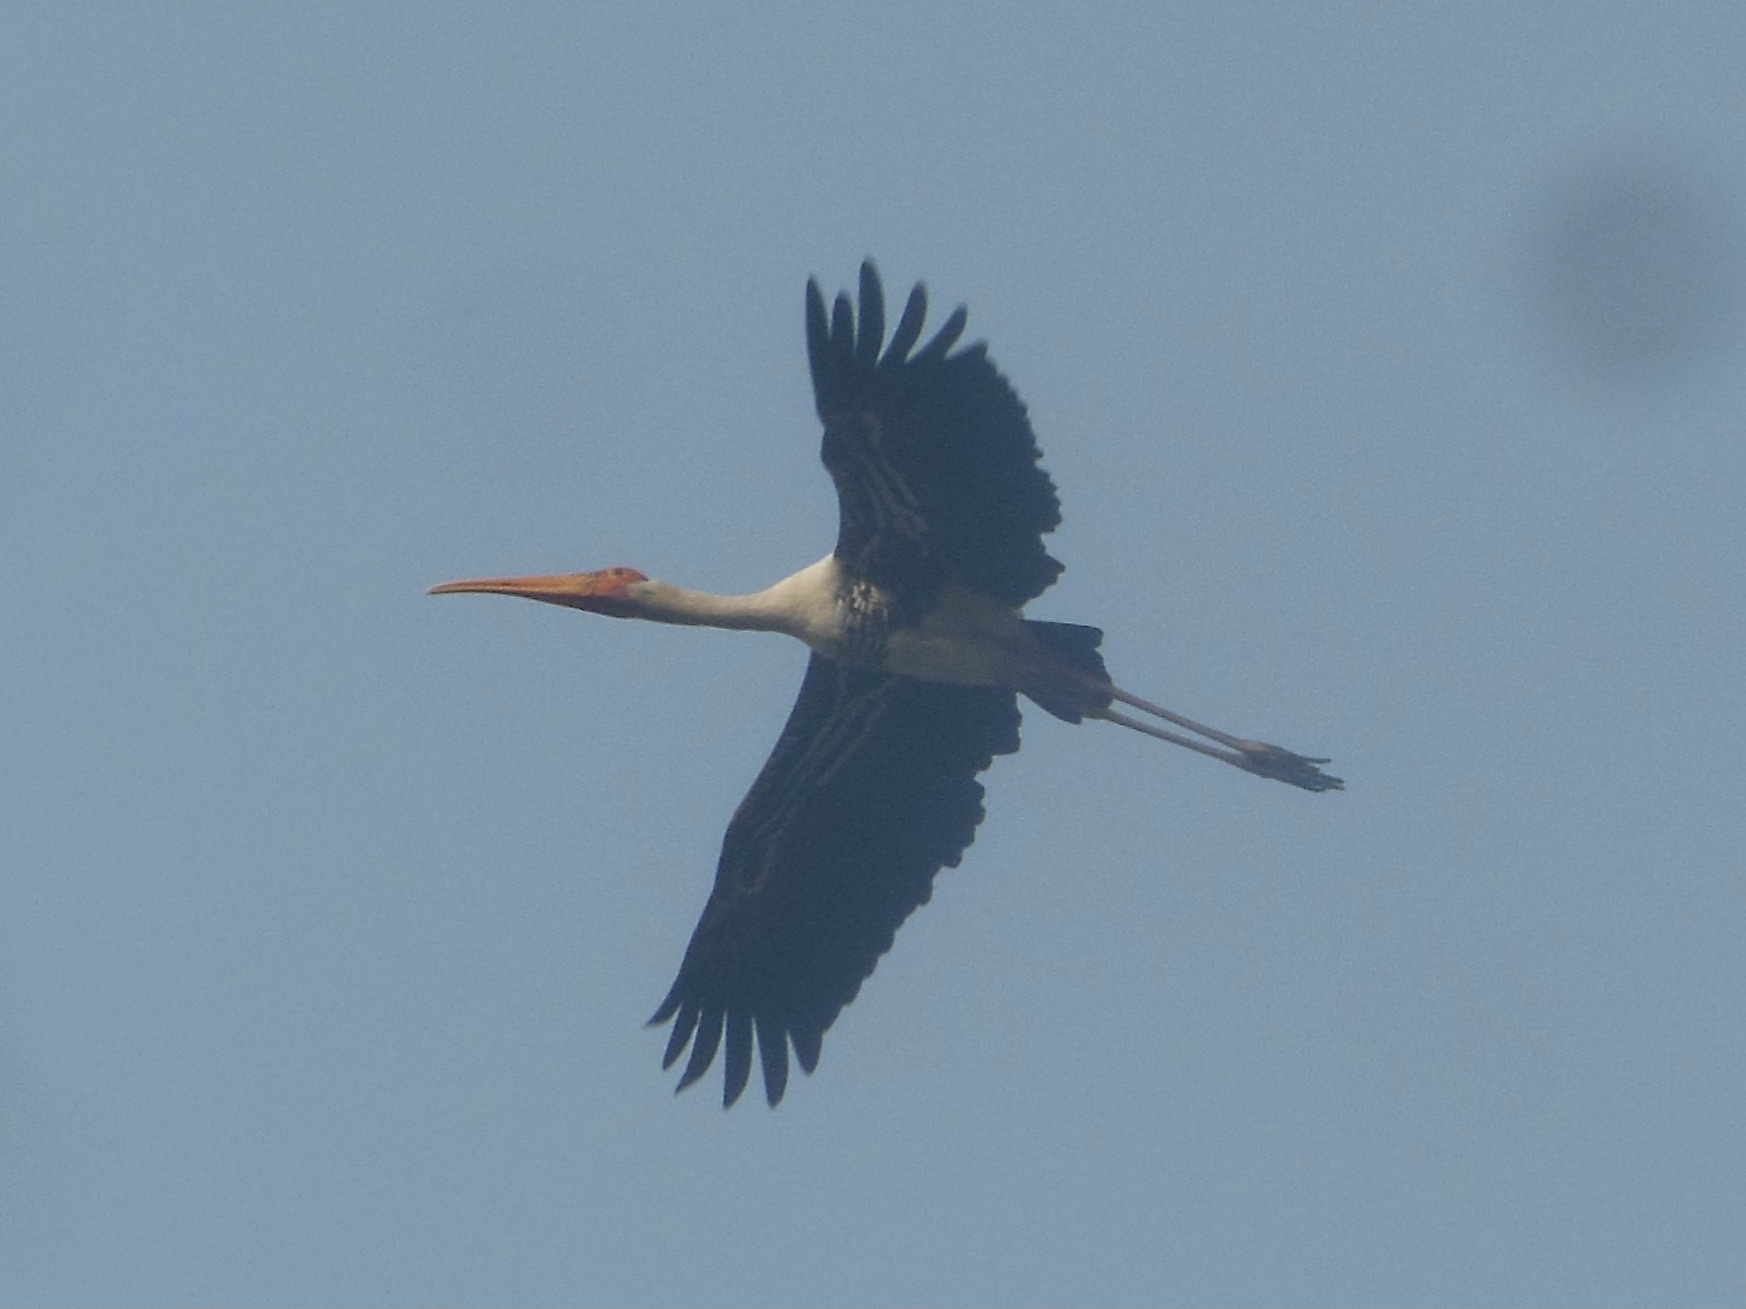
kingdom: Animalia
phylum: Chordata
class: Aves
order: Ciconiiformes
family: Ciconiidae
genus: Mycteria
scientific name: Mycteria leucocephala
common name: Painted stork
